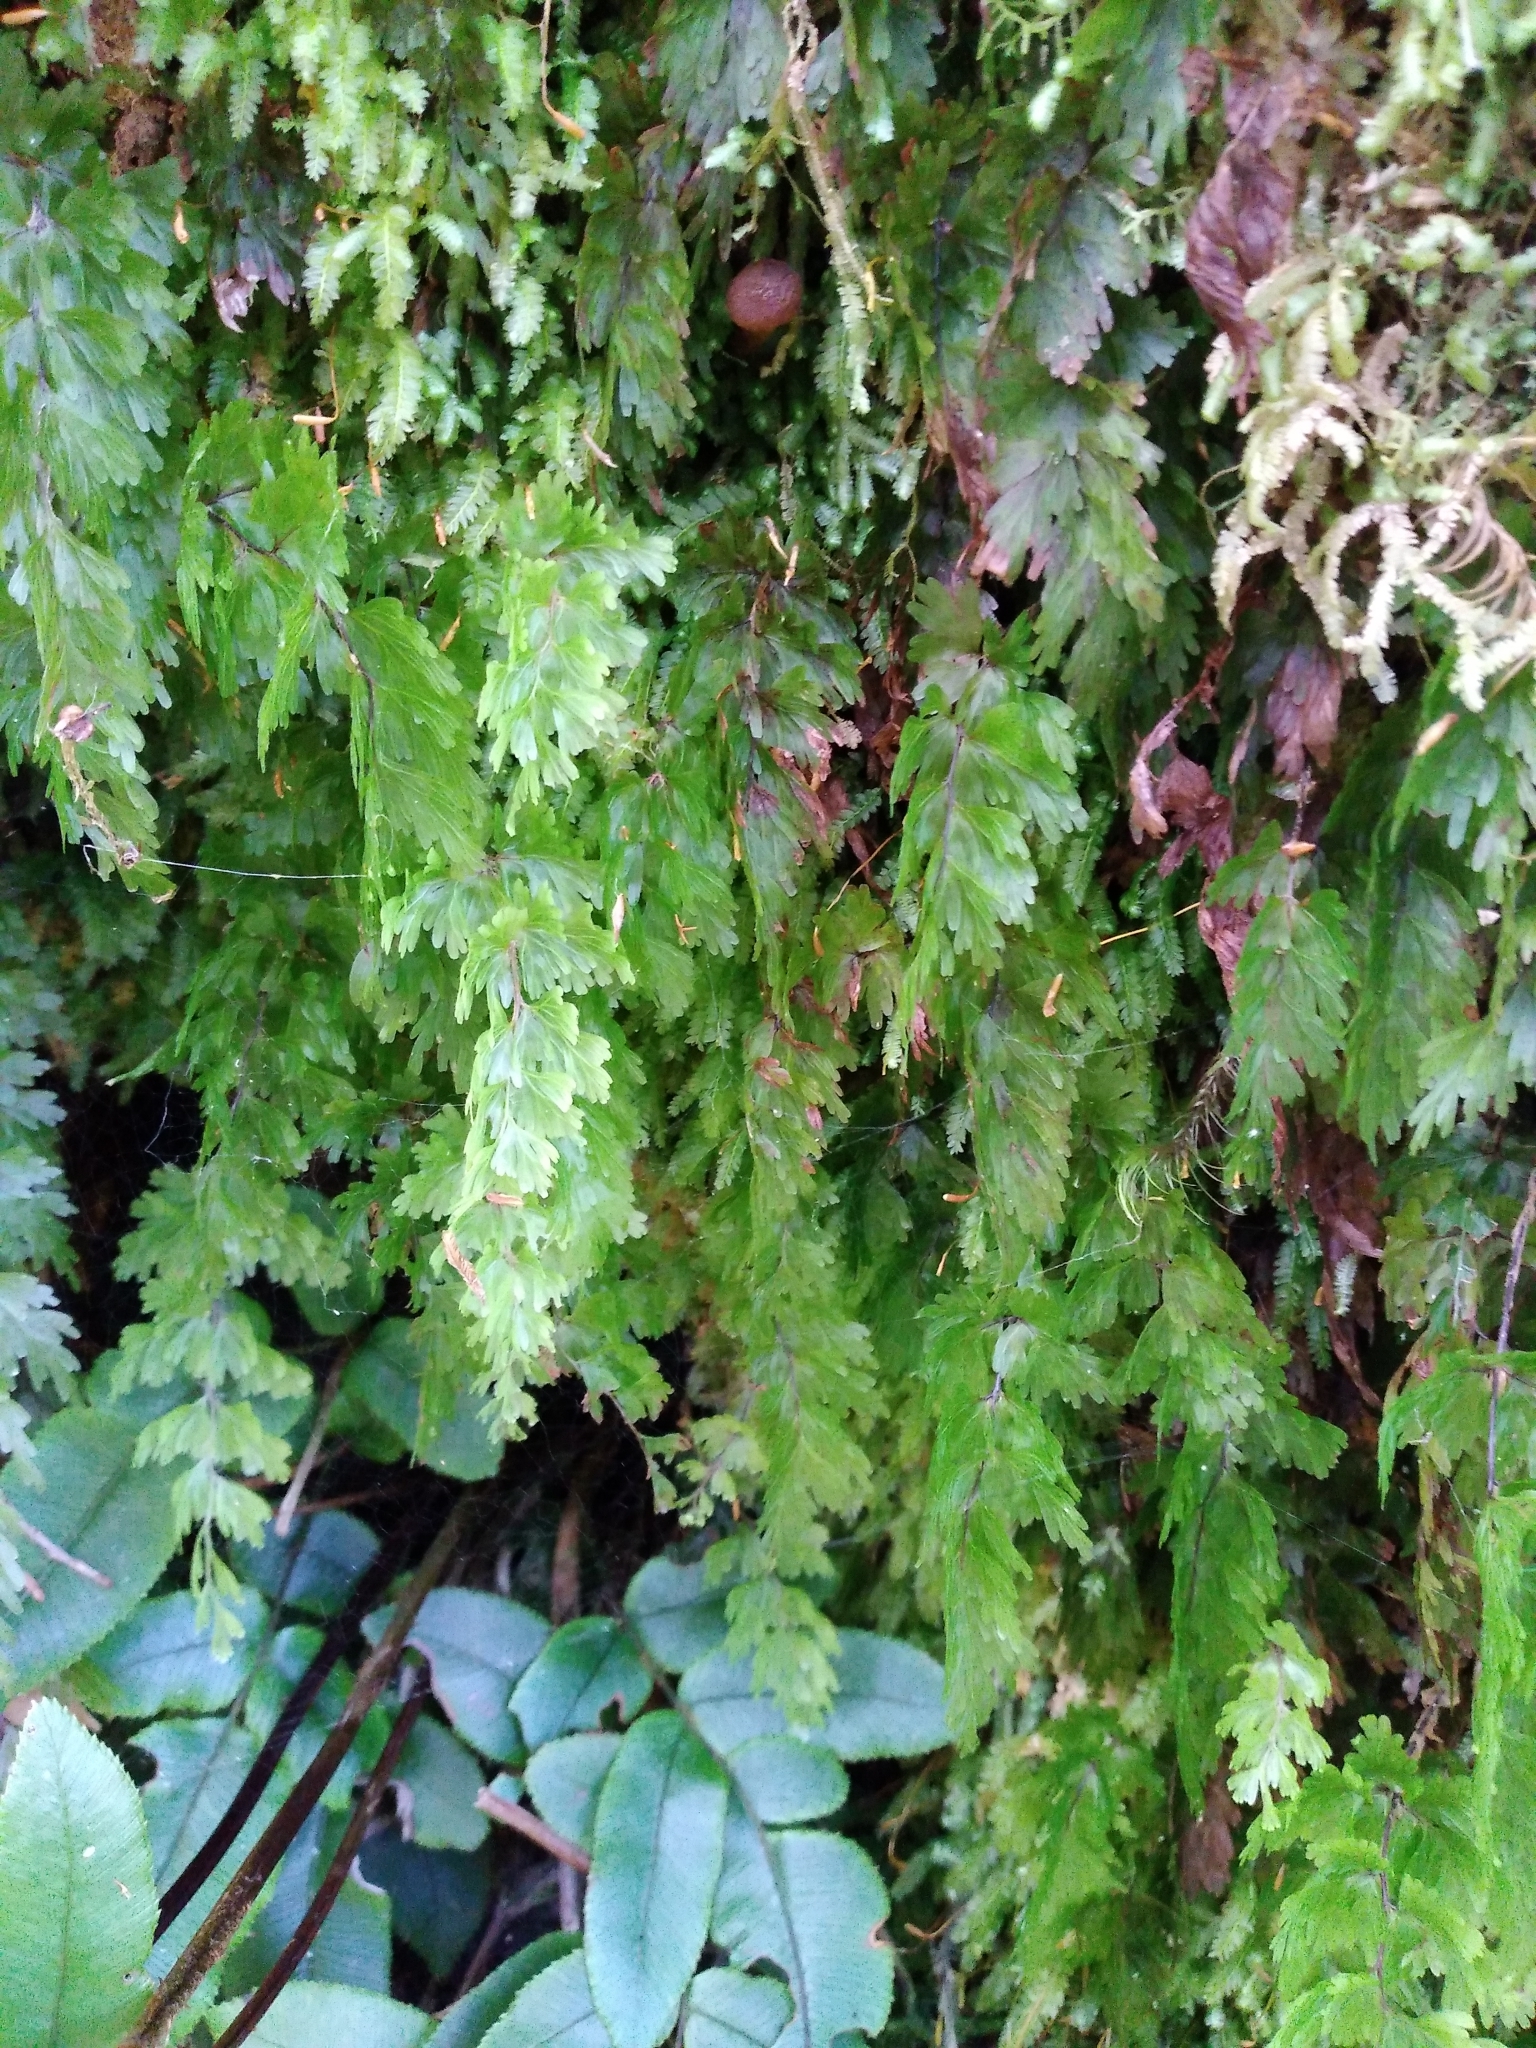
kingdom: Plantae
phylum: Tracheophyta
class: Polypodiopsida
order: Hymenophyllales
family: Hymenophyllaceae
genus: Hymenophyllum
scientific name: Hymenophyllum flabellatum
